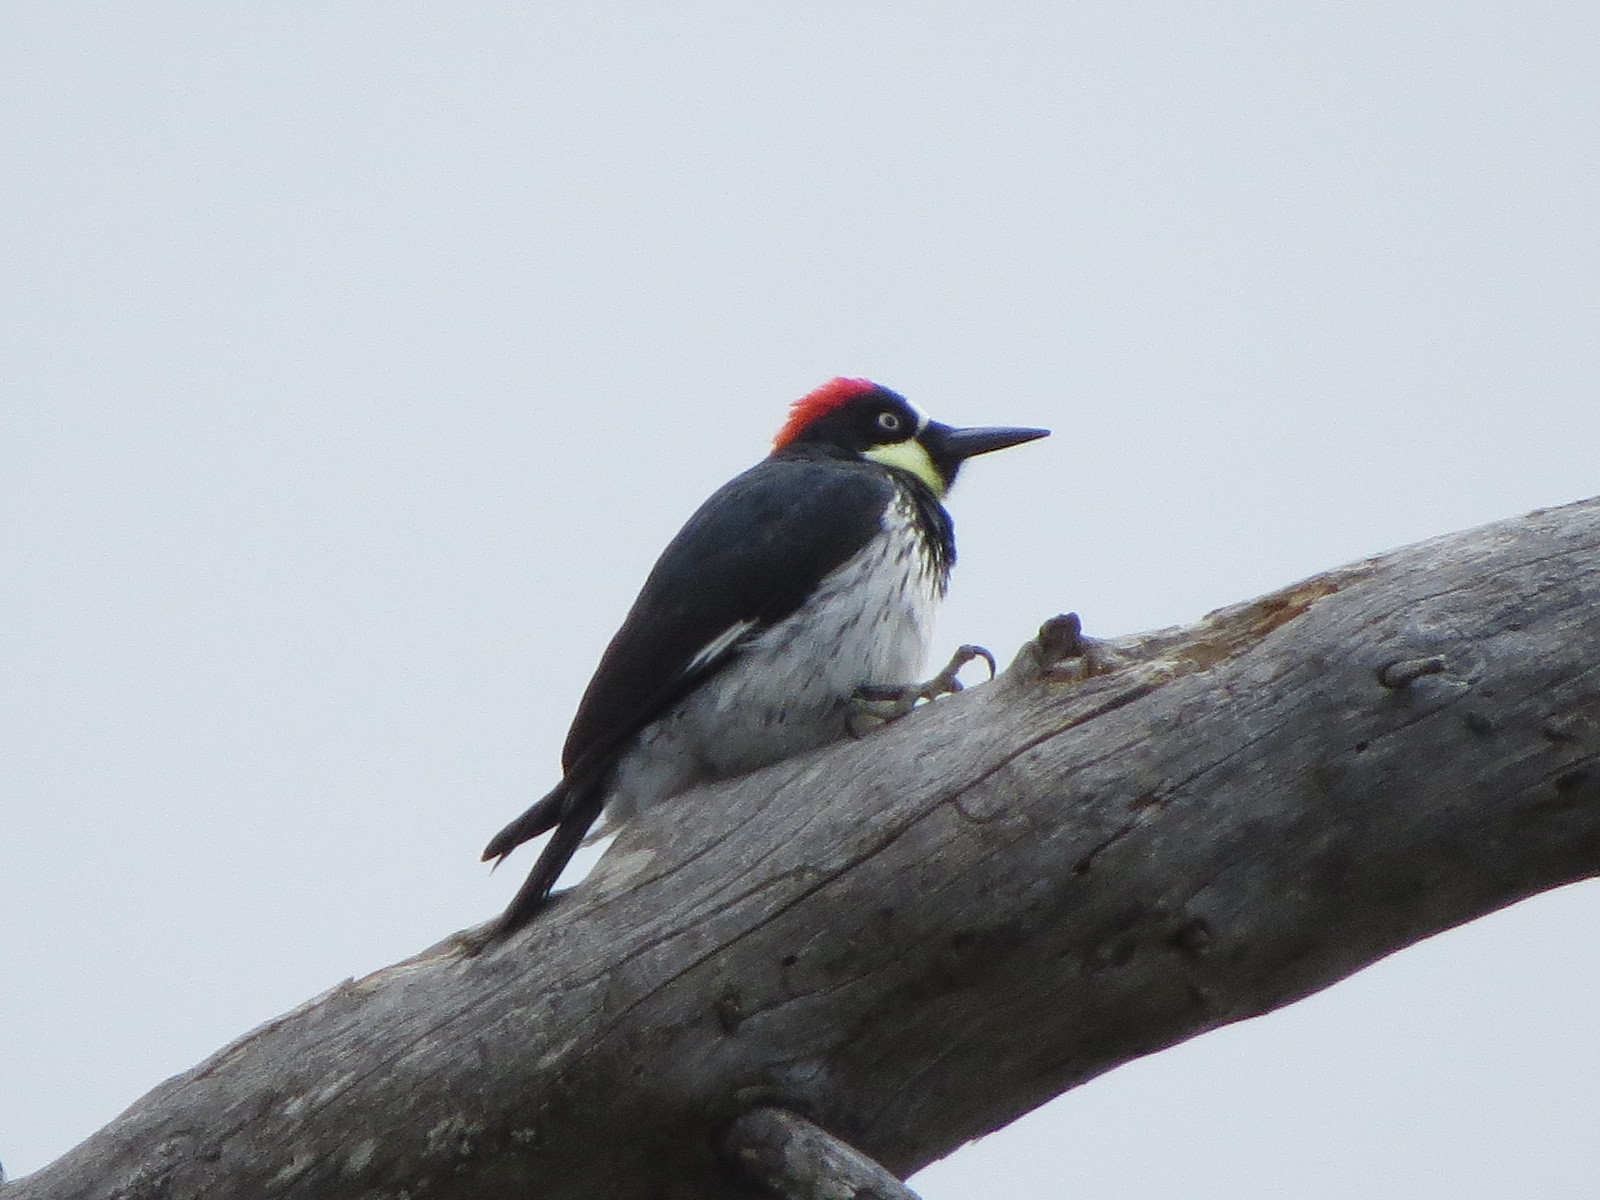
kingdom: Animalia
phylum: Chordata
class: Aves
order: Piciformes
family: Picidae
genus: Melanerpes
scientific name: Melanerpes formicivorus
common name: Acorn woodpecker
